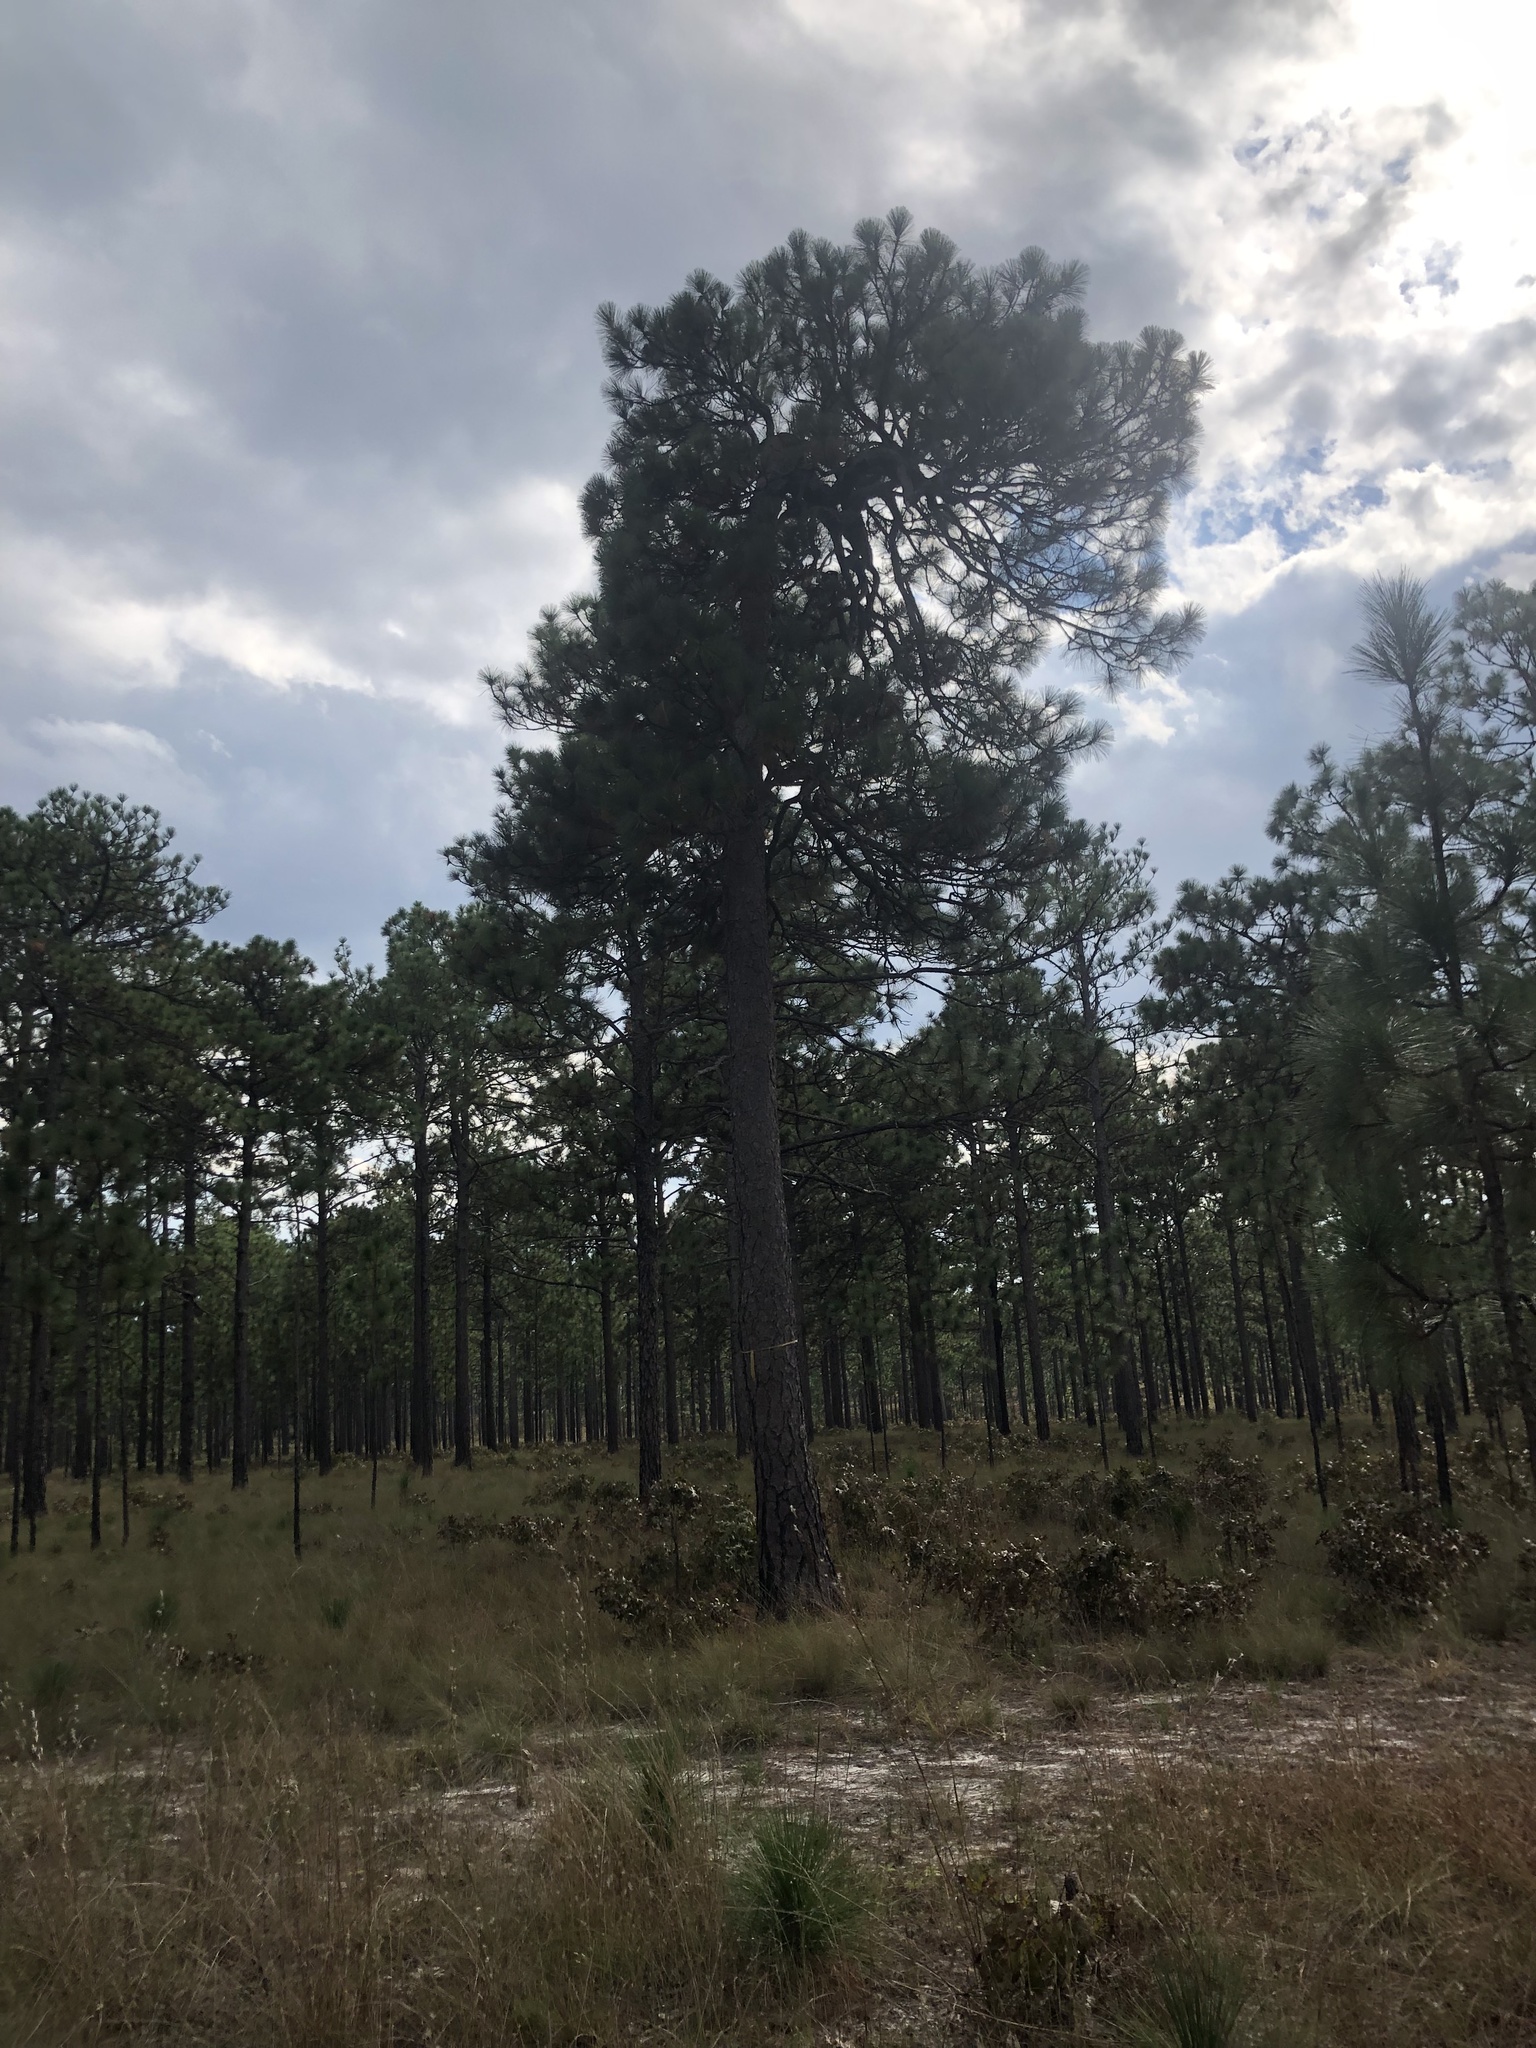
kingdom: Plantae
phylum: Tracheophyta
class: Pinopsida
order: Pinales
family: Pinaceae
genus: Pinus
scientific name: Pinus palustris
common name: Longleaf pine
